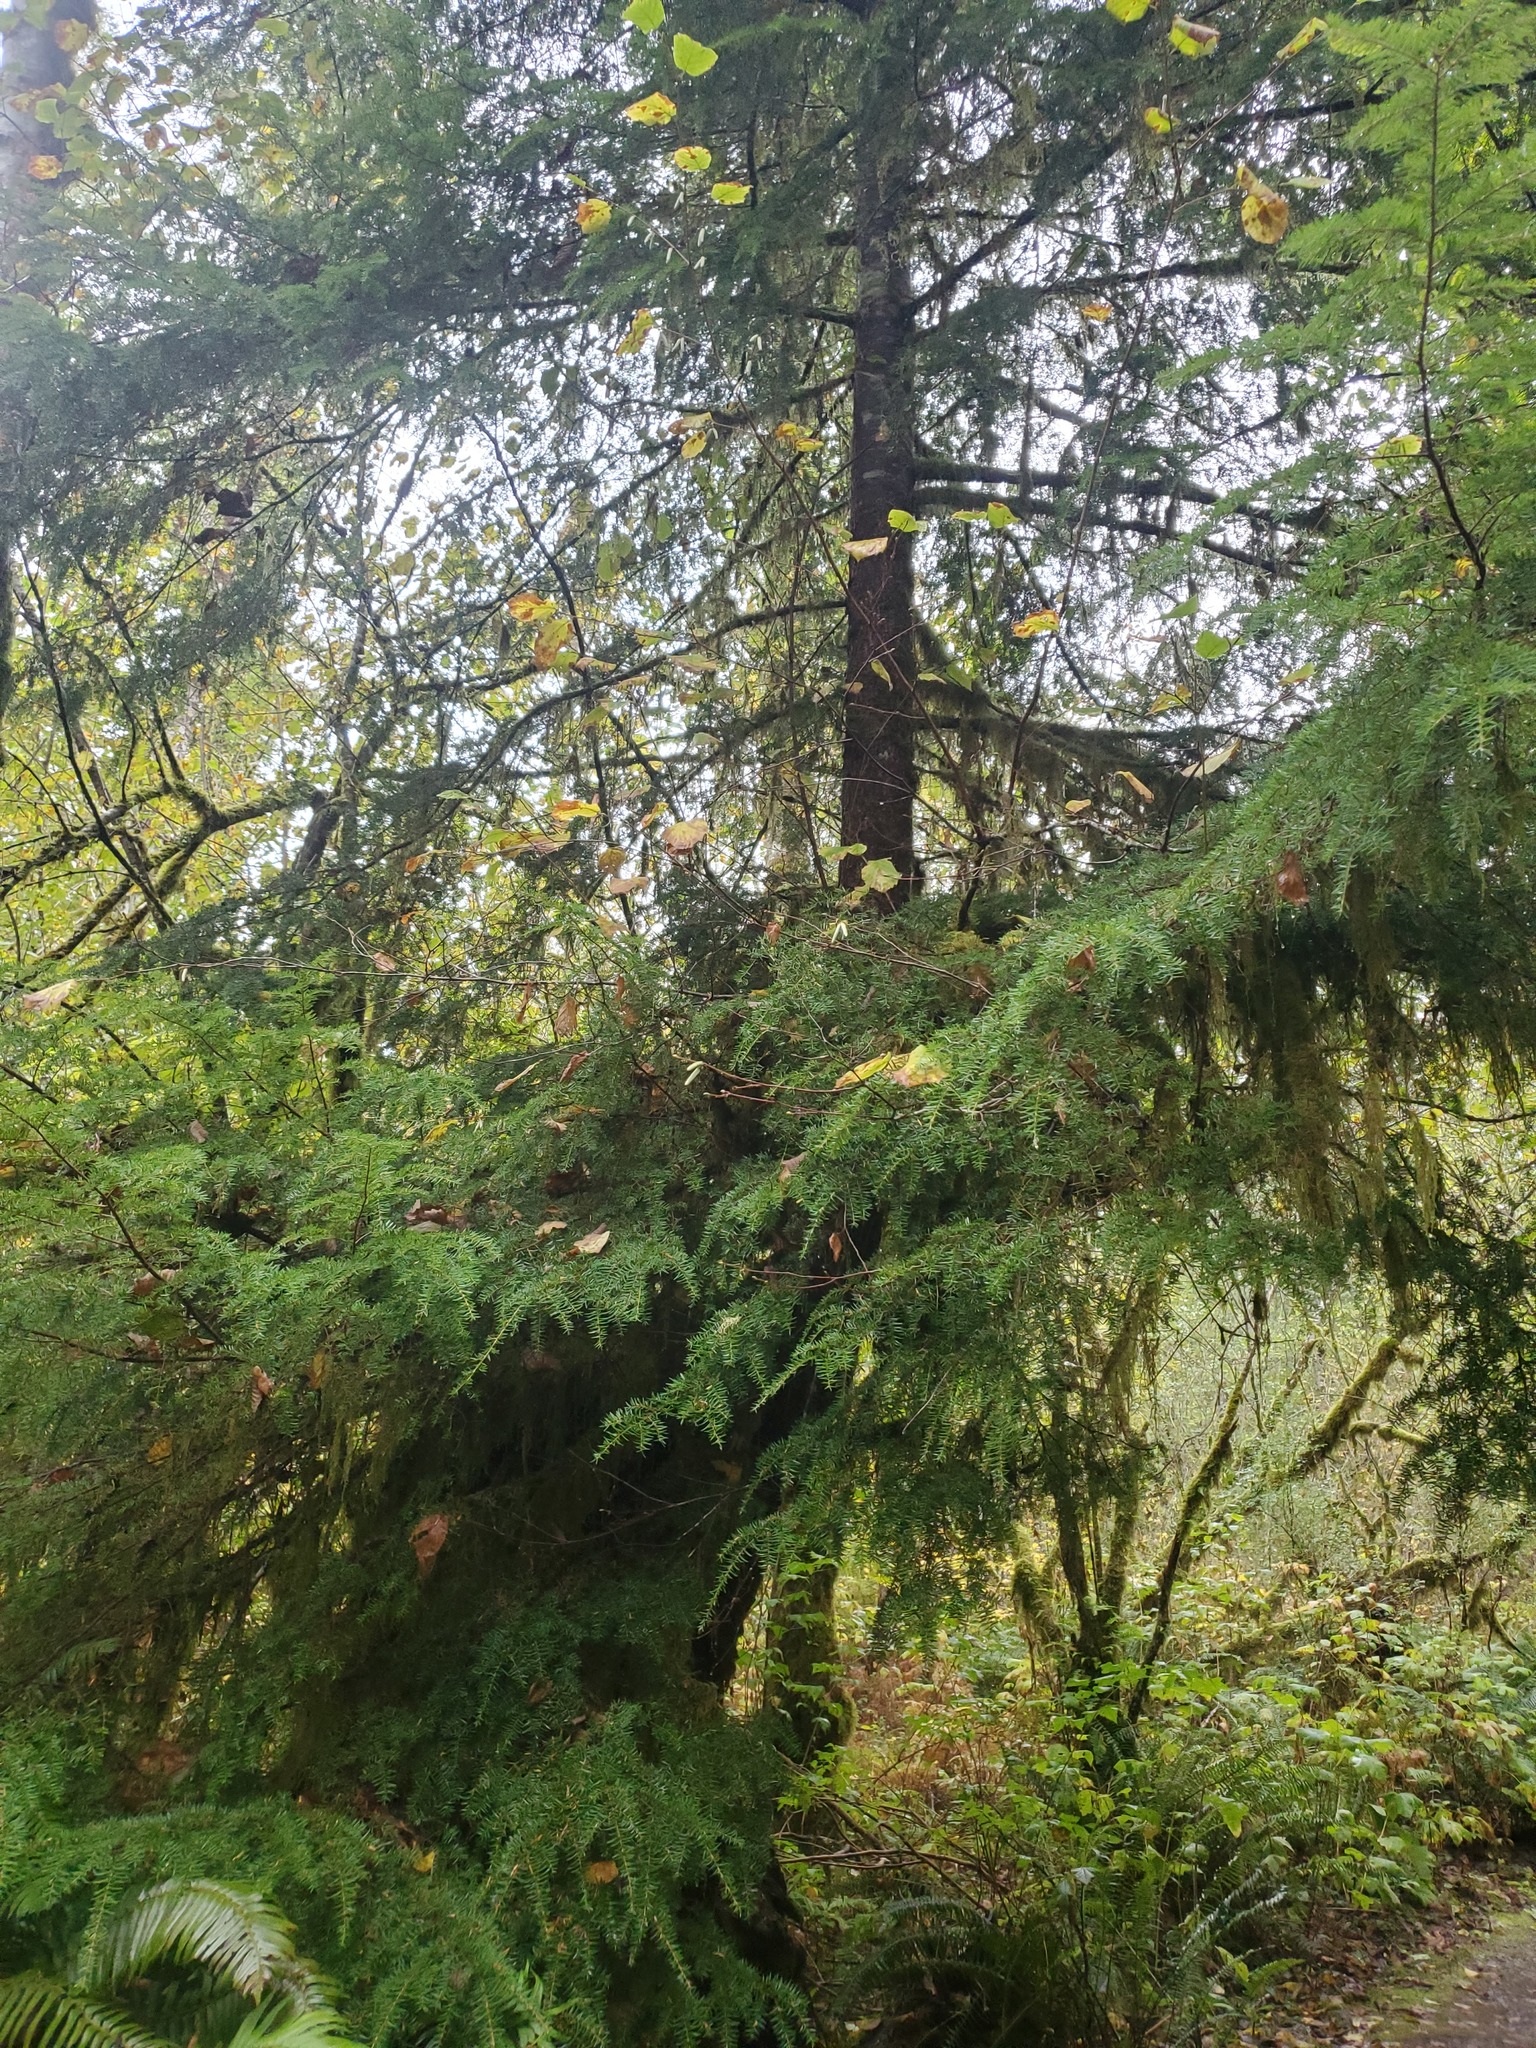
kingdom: Plantae
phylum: Tracheophyta
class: Pinopsida
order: Pinales
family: Pinaceae
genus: Tsuga
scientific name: Tsuga heterophylla
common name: Western hemlock
